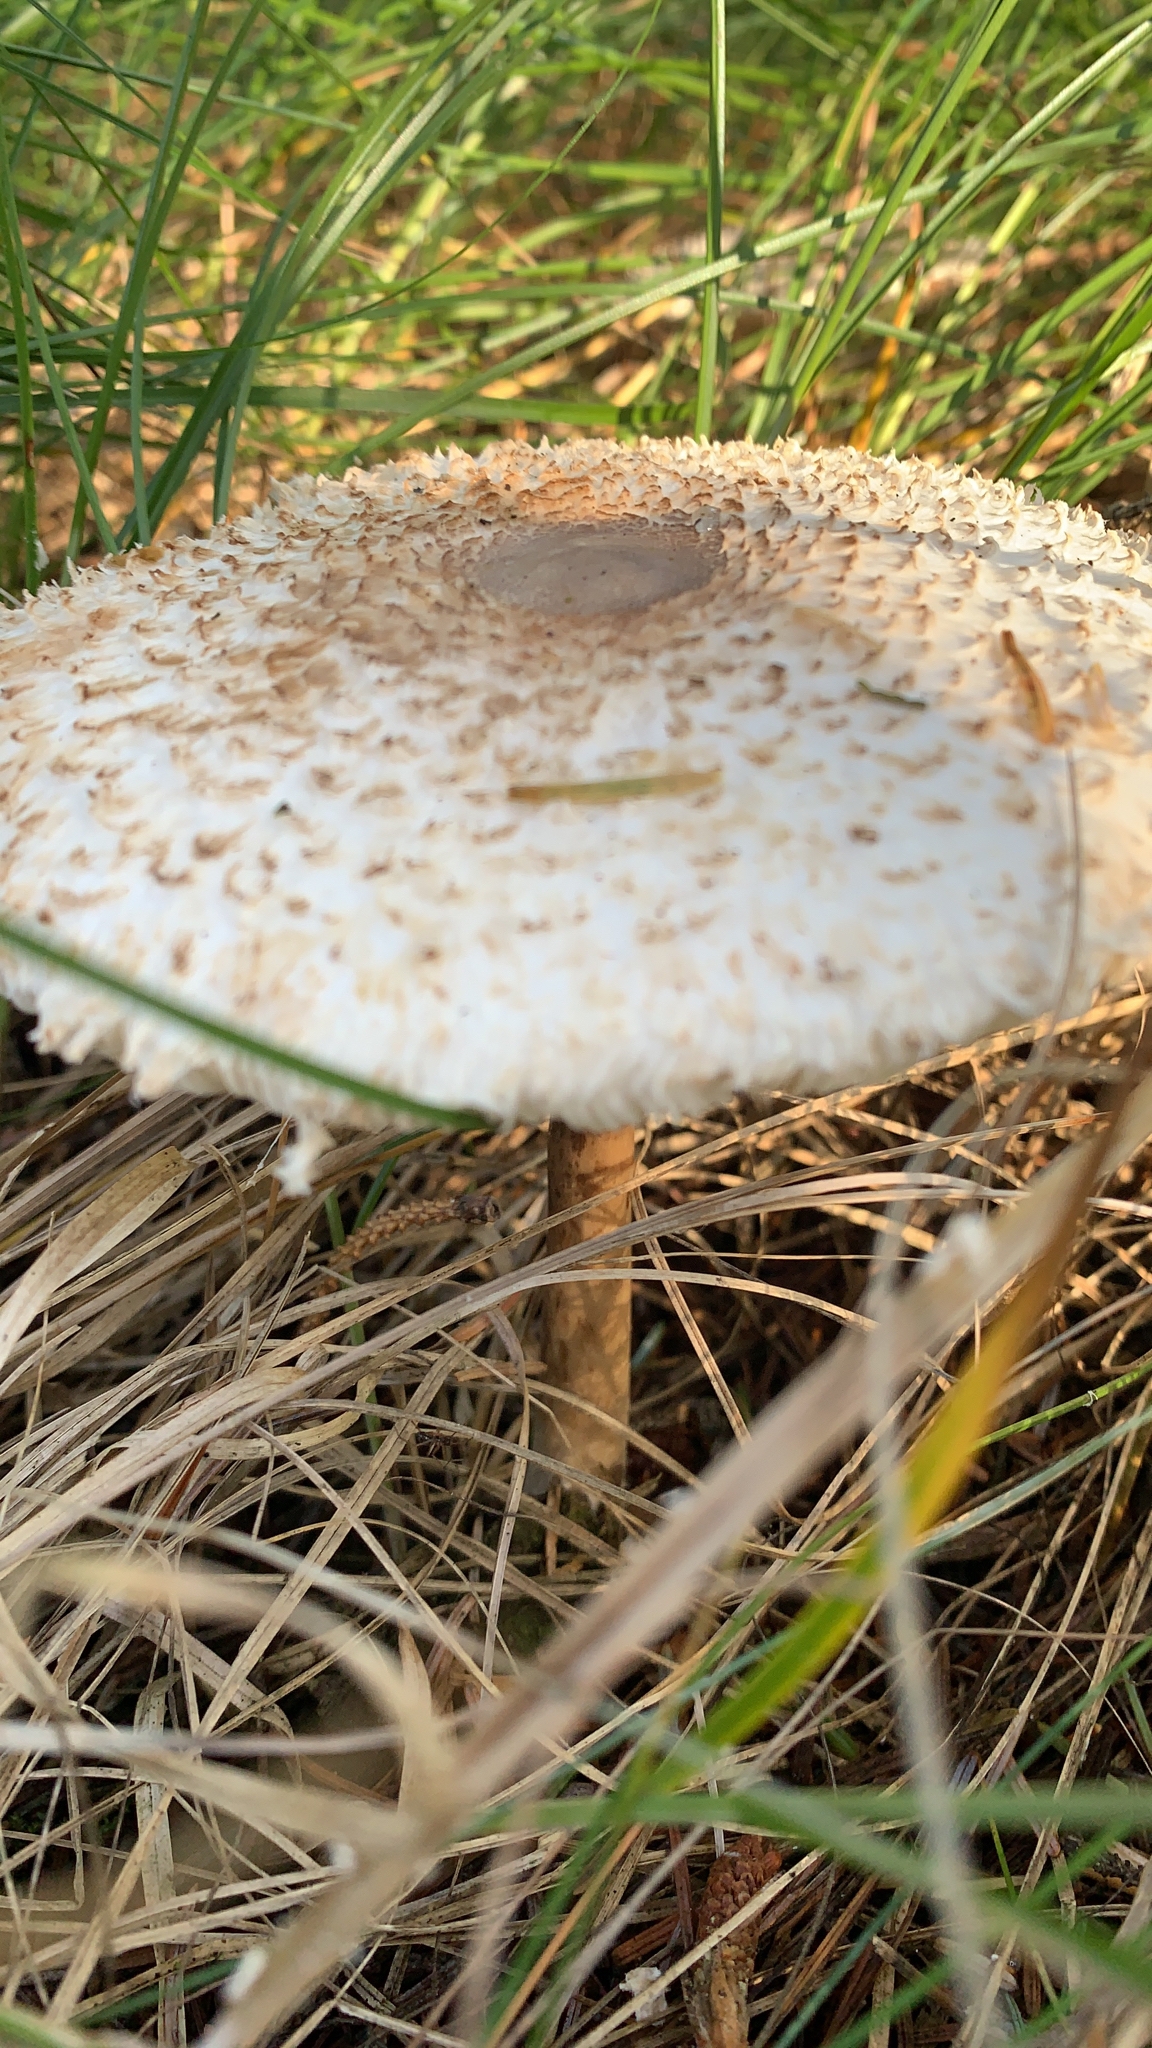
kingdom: Fungi
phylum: Basidiomycota
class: Agaricomycetes
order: Agaricales
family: Agaricaceae
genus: Leucoagaricus
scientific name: Leucoagaricus nympharum
